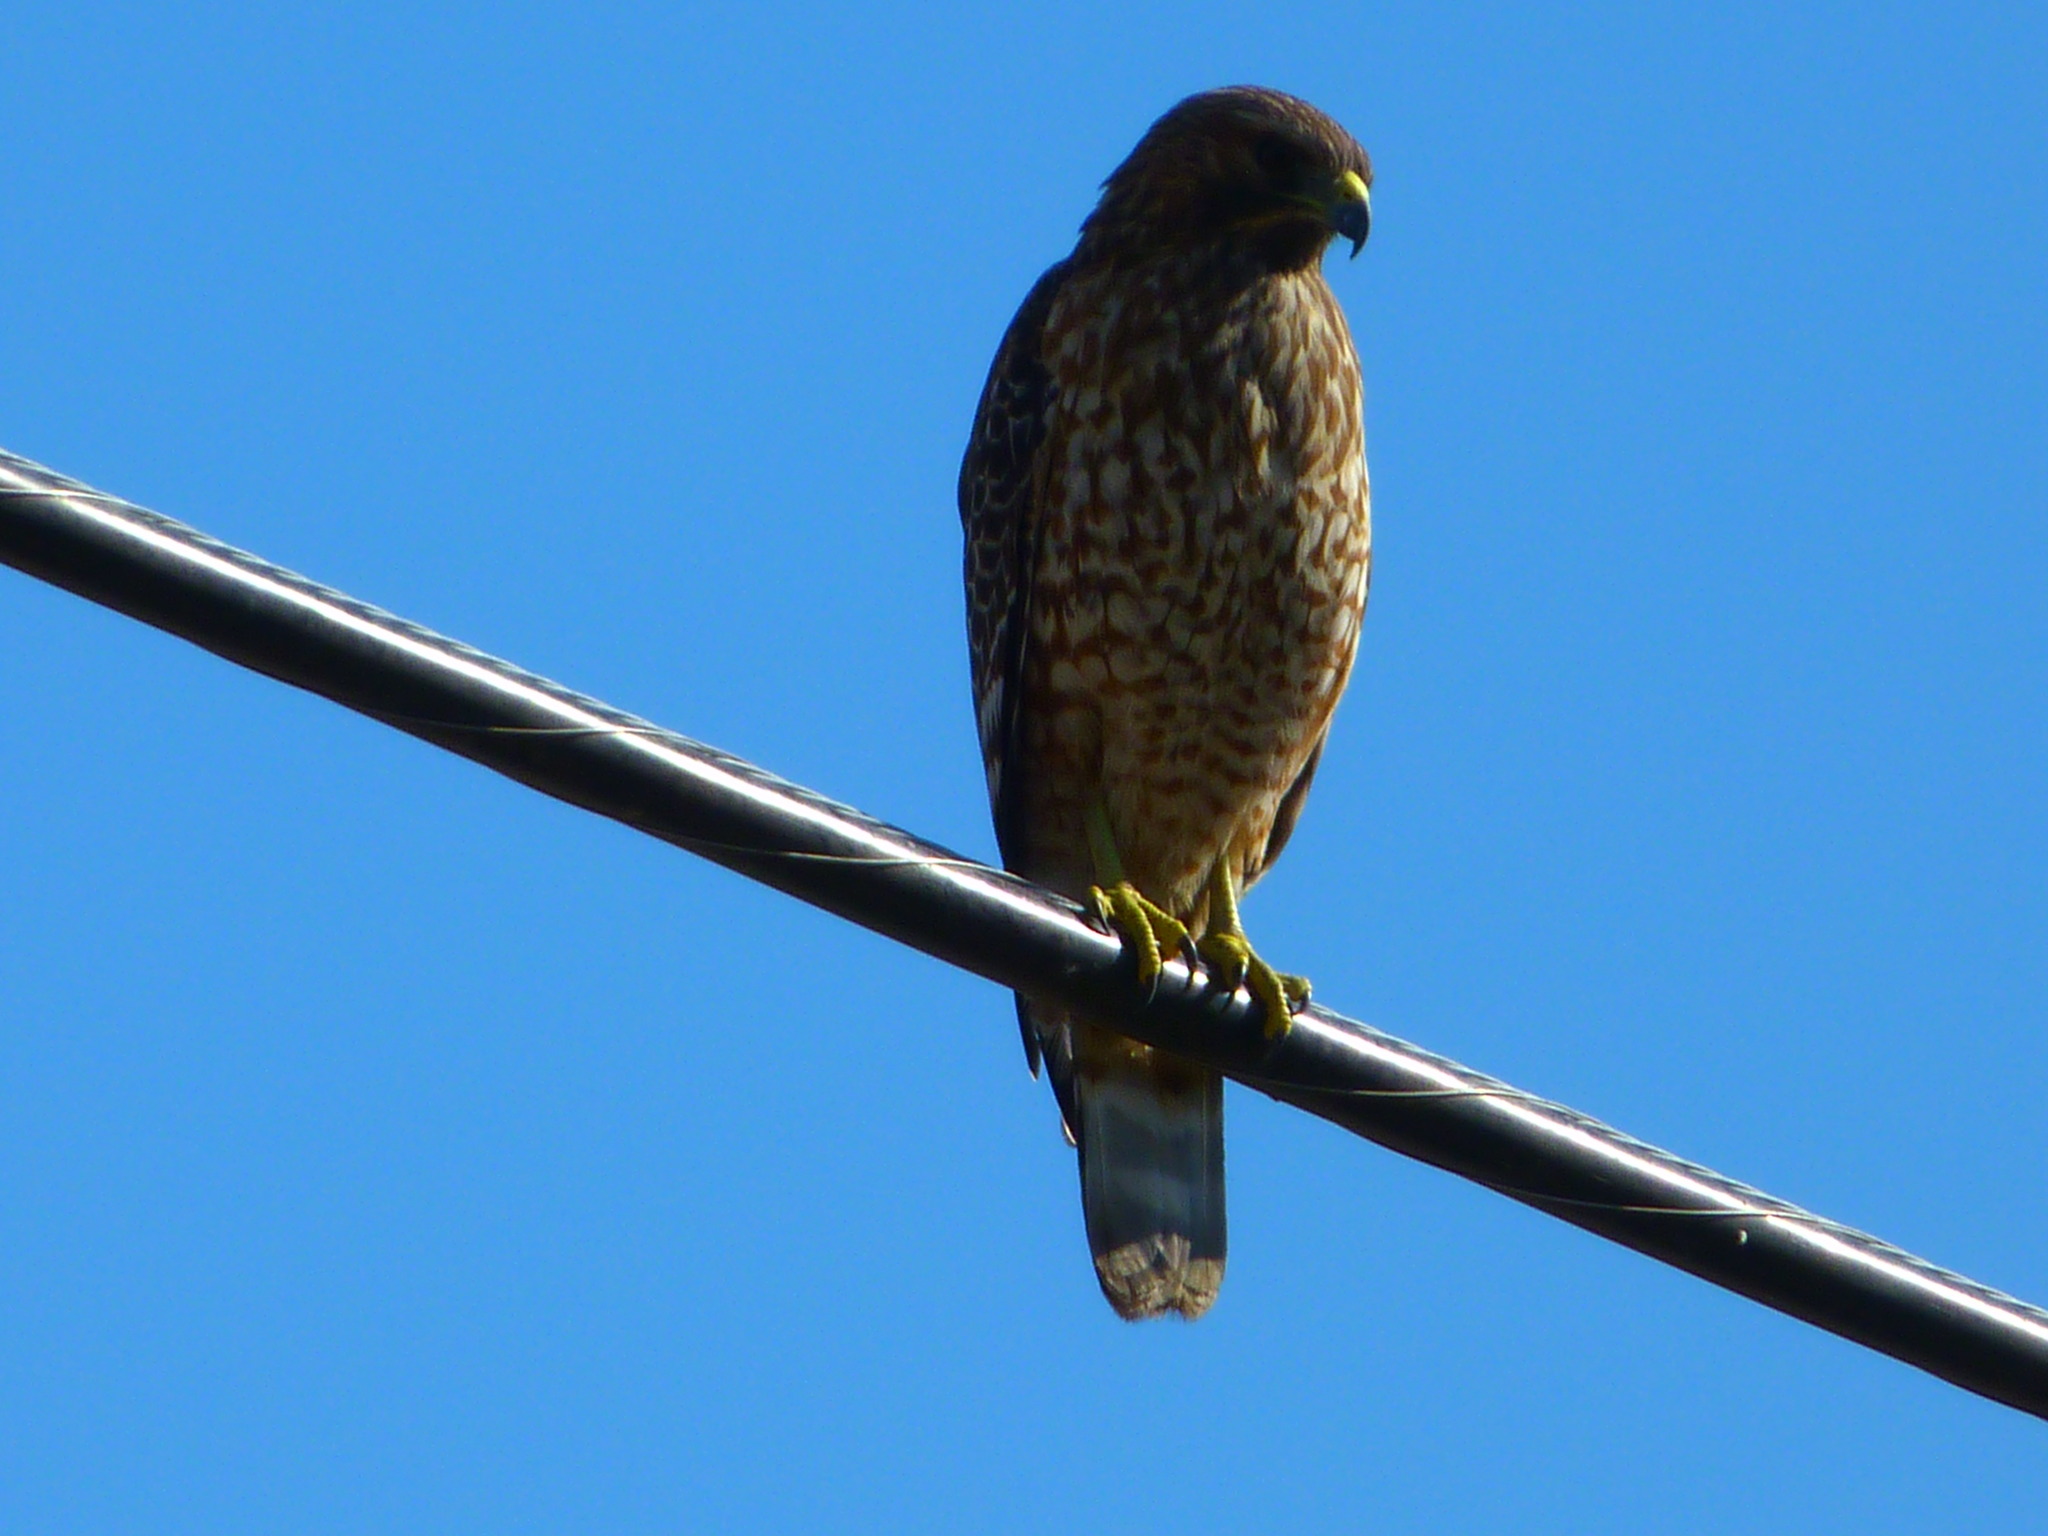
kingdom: Animalia
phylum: Chordata
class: Aves
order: Accipitriformes
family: Accipitridae
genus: Buteo
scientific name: Buteo lineatus
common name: Red-shouldered hawk
